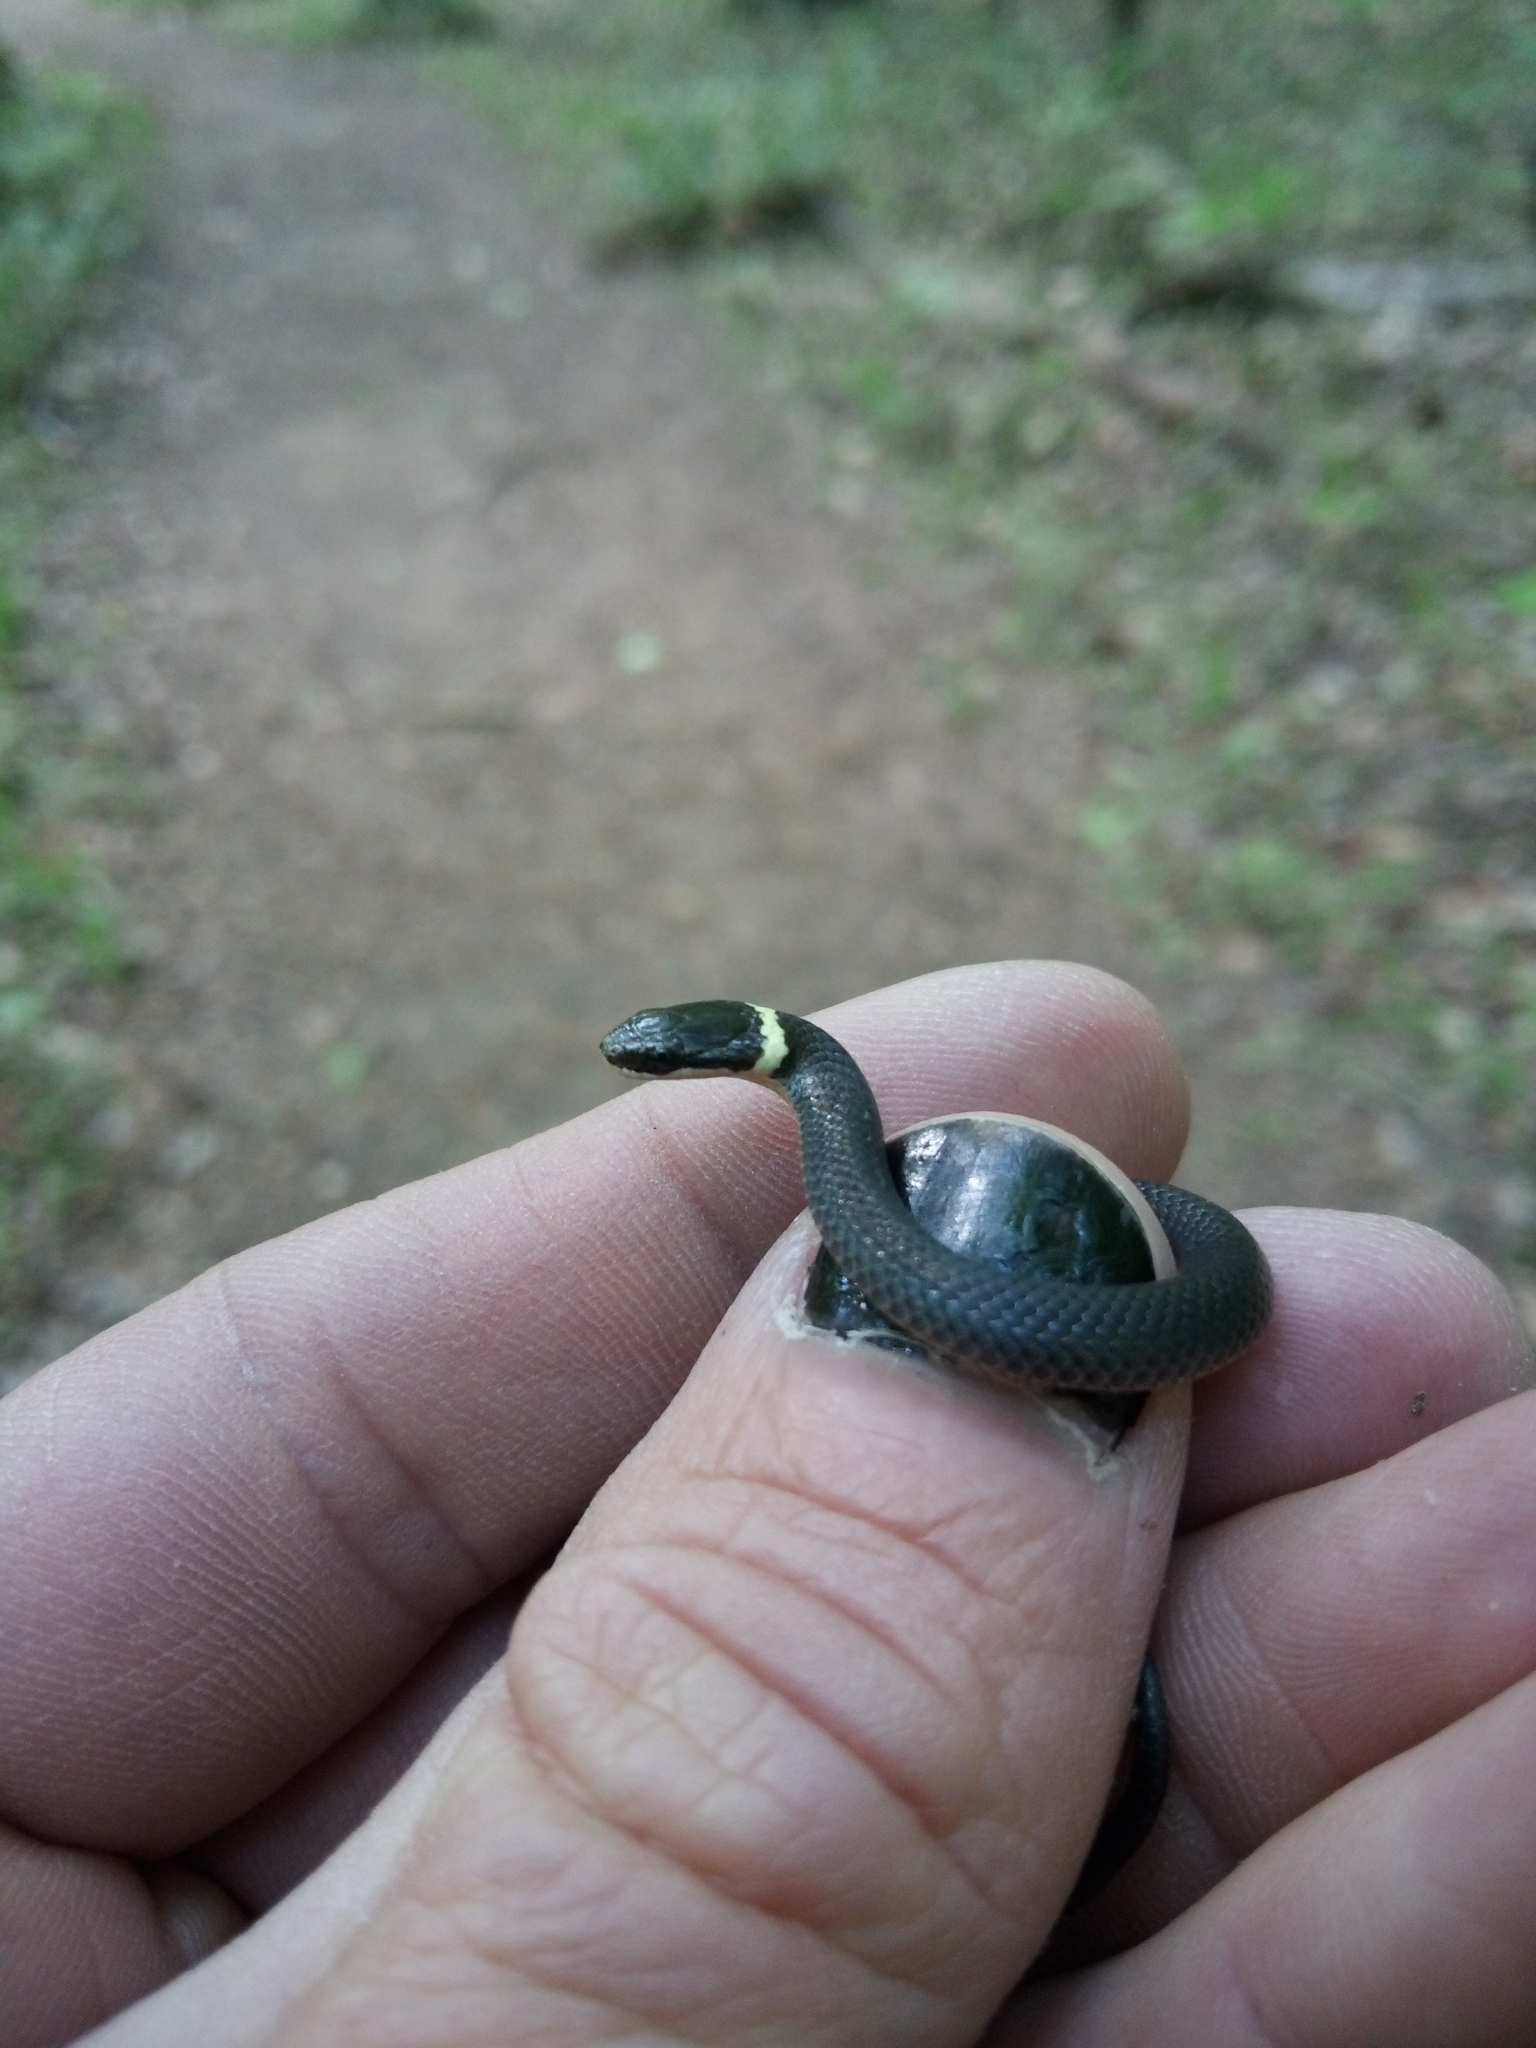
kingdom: Animalia
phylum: Chordata
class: Squamata
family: Colubridae
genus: Diadophis
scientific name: Diadophis punctatus
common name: Ringneck snake
